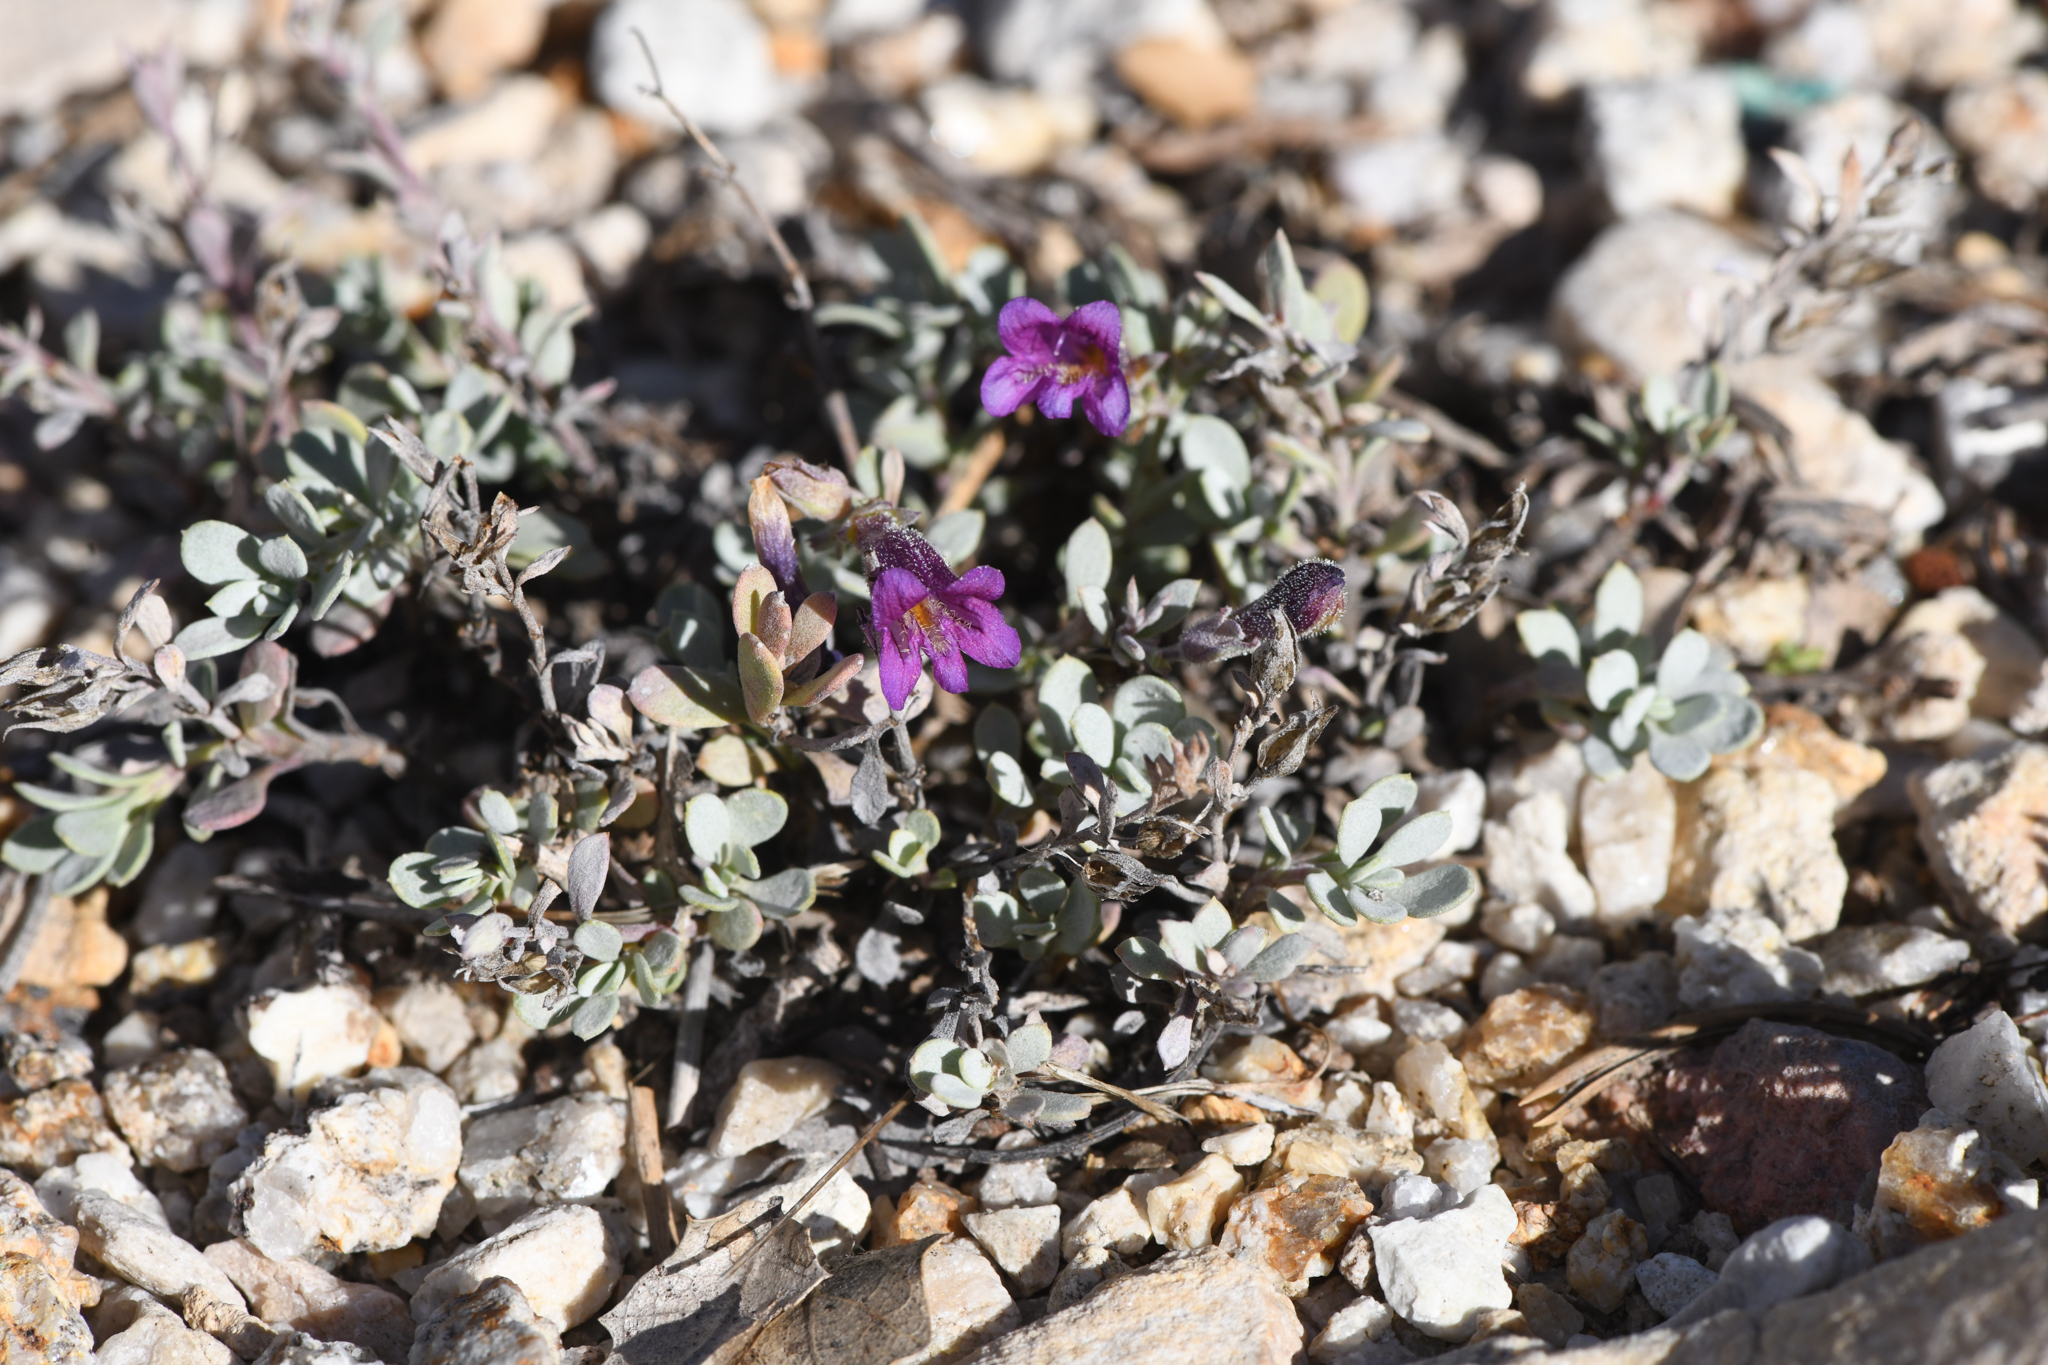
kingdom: Plantae
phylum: Tracheophyta
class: Magnoliopsida
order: Lamiales
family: Plantaginaceae
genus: Penstemon
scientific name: Penstemon thompsoniae
